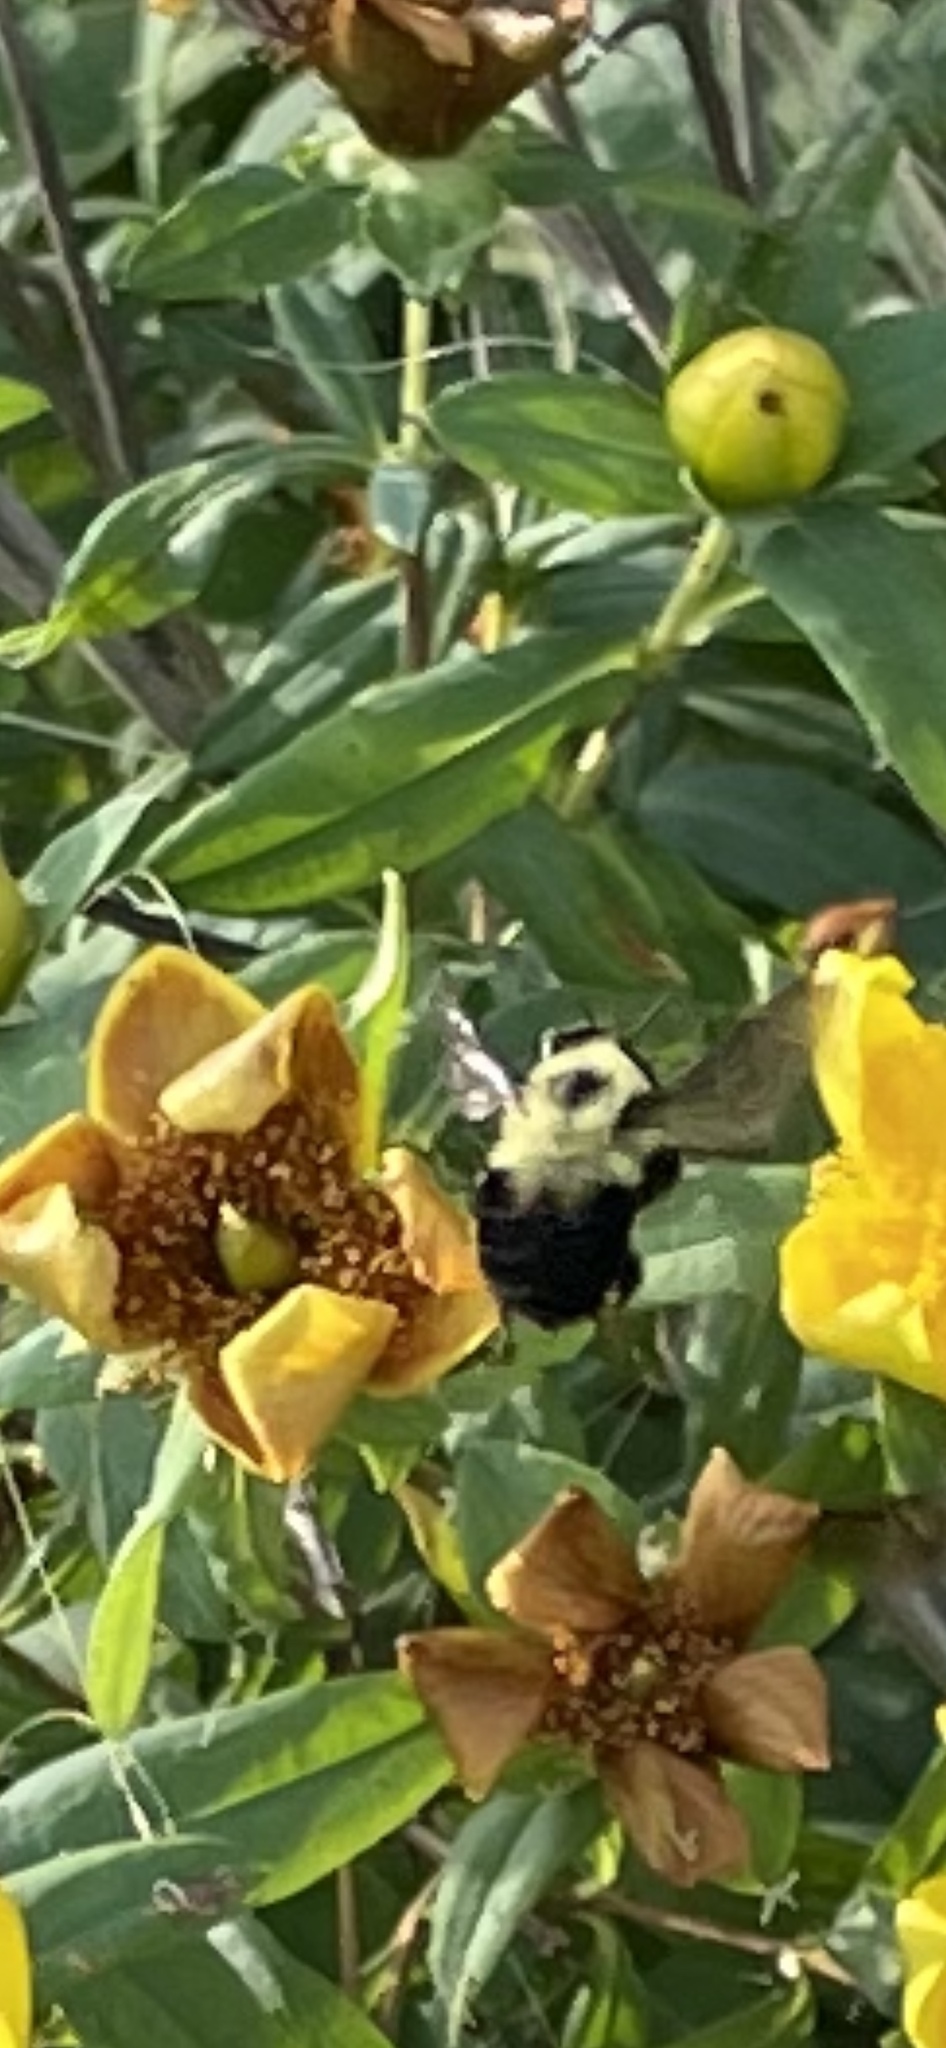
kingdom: Animalia
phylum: Arthropoda
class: Insecta
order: Hymenoptera
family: Apidae
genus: Bombus
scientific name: Bombus bimaculatus
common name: Two-spotted bumble bee
